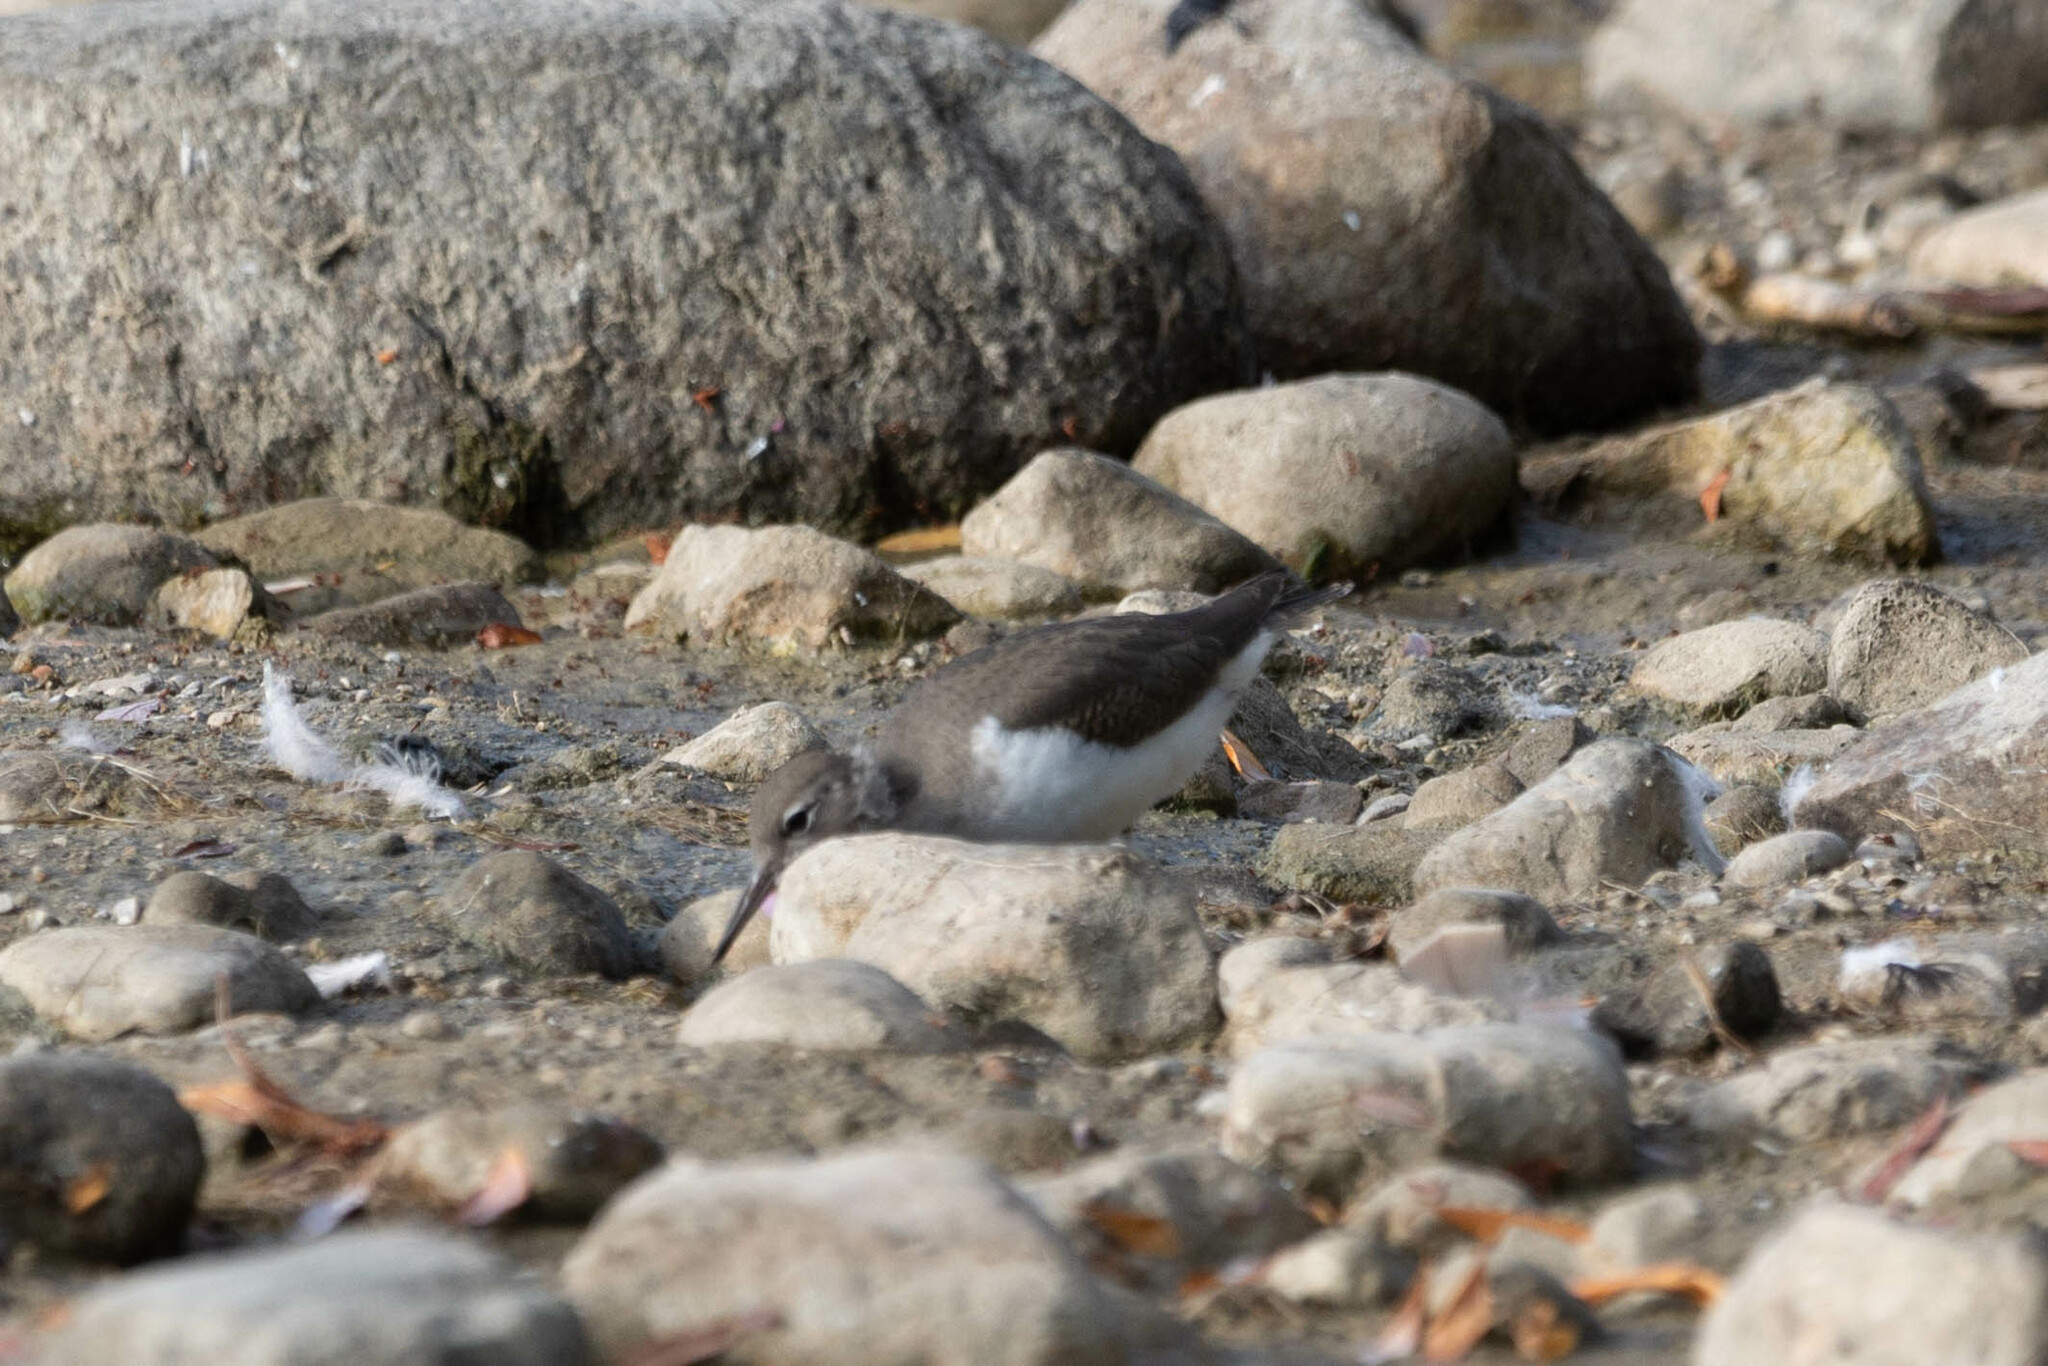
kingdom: Animalia
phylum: Chordata
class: Aves
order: Charadriiformes
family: Scolopacidae
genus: Actitis
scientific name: Actitis macularius
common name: Spotted sandpiper
